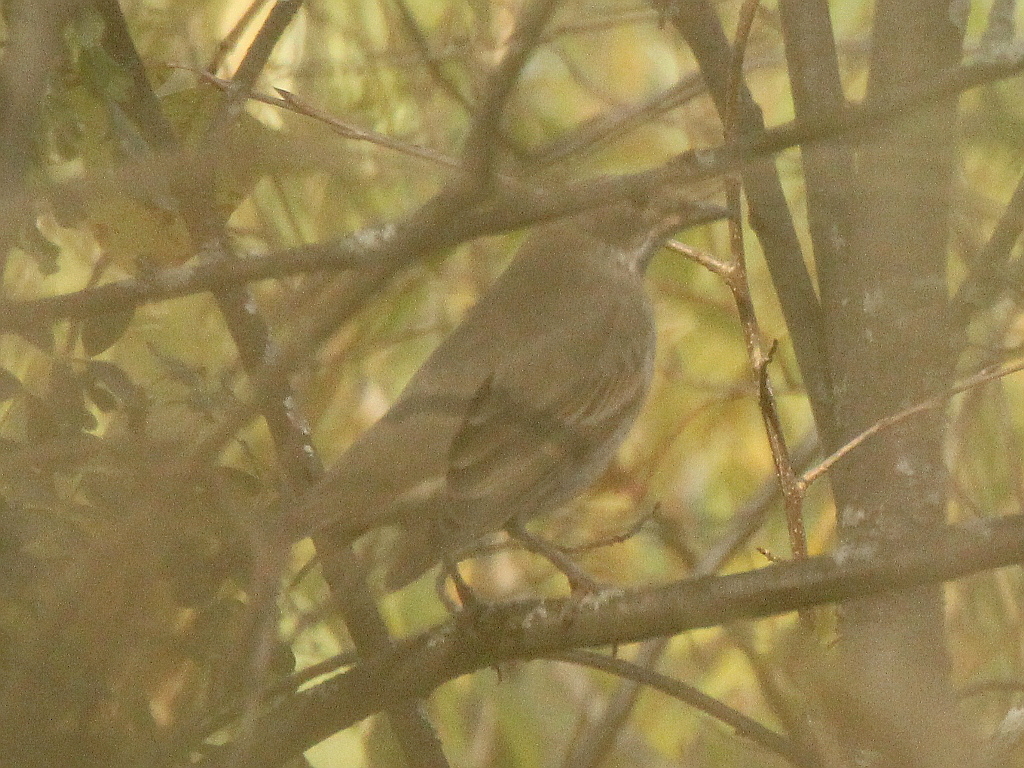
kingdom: Animalia
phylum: Chordata
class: Aves
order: Passeriformes
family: Turdidae
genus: Turdus
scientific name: Turdus atrogularis
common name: Black-throated thrush
